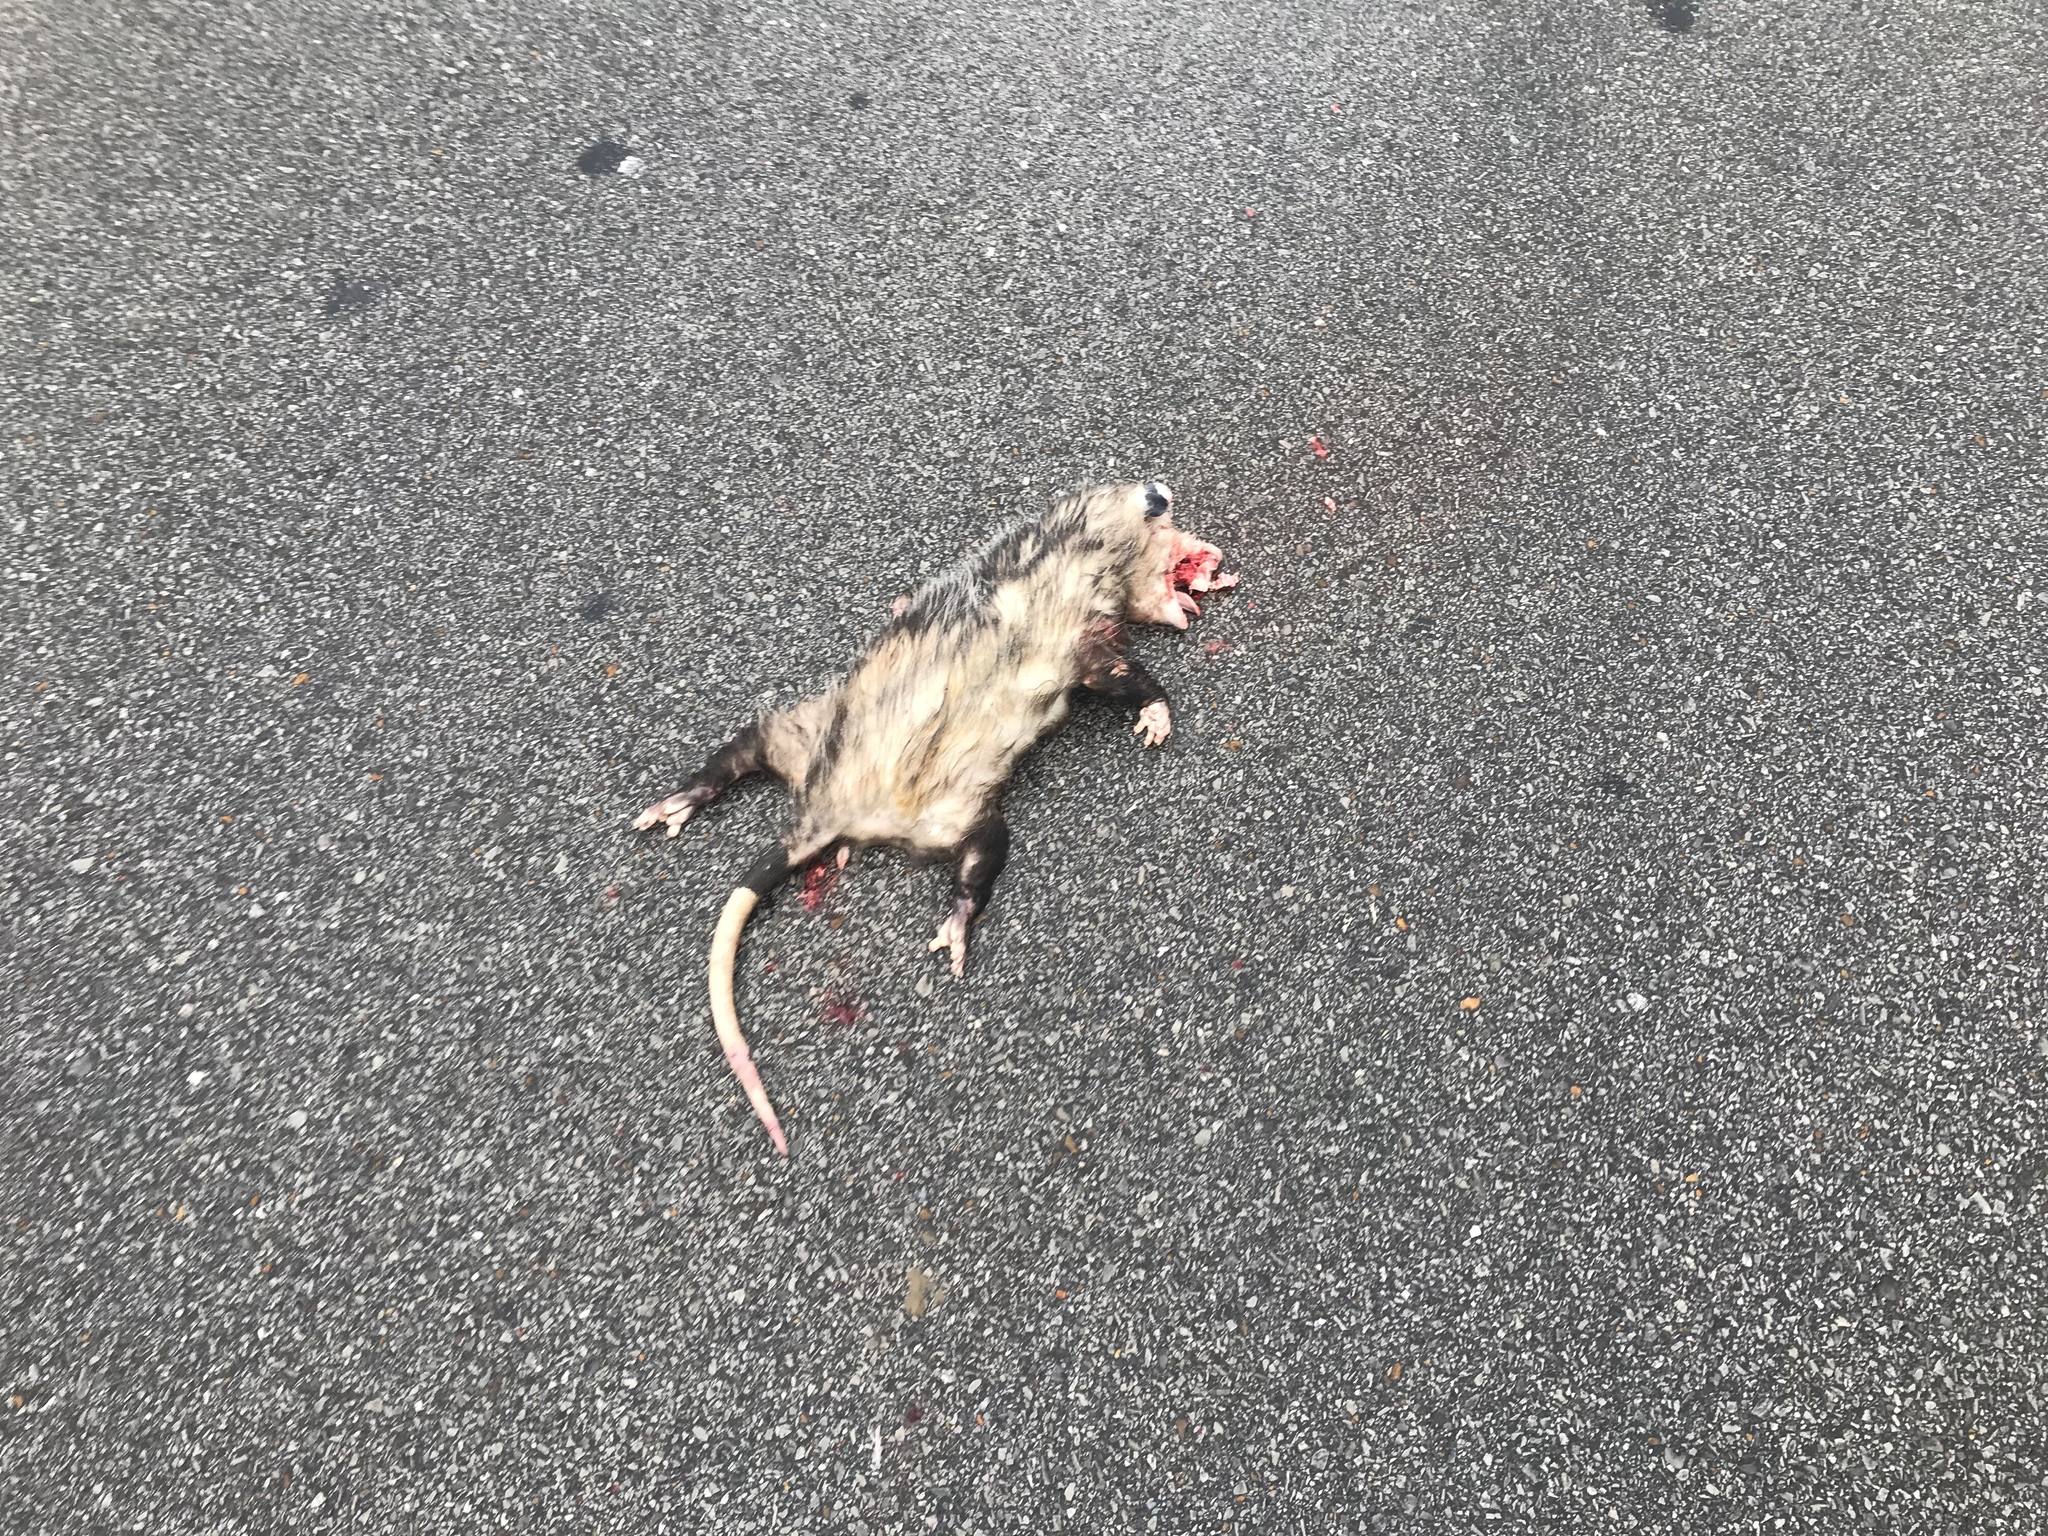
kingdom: Animalia
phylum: Chordata
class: Mammalia
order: Didelphimorphia
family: Didelphidae
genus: Didelphis
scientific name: Didelphis virginiana
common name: Virginia opossum
